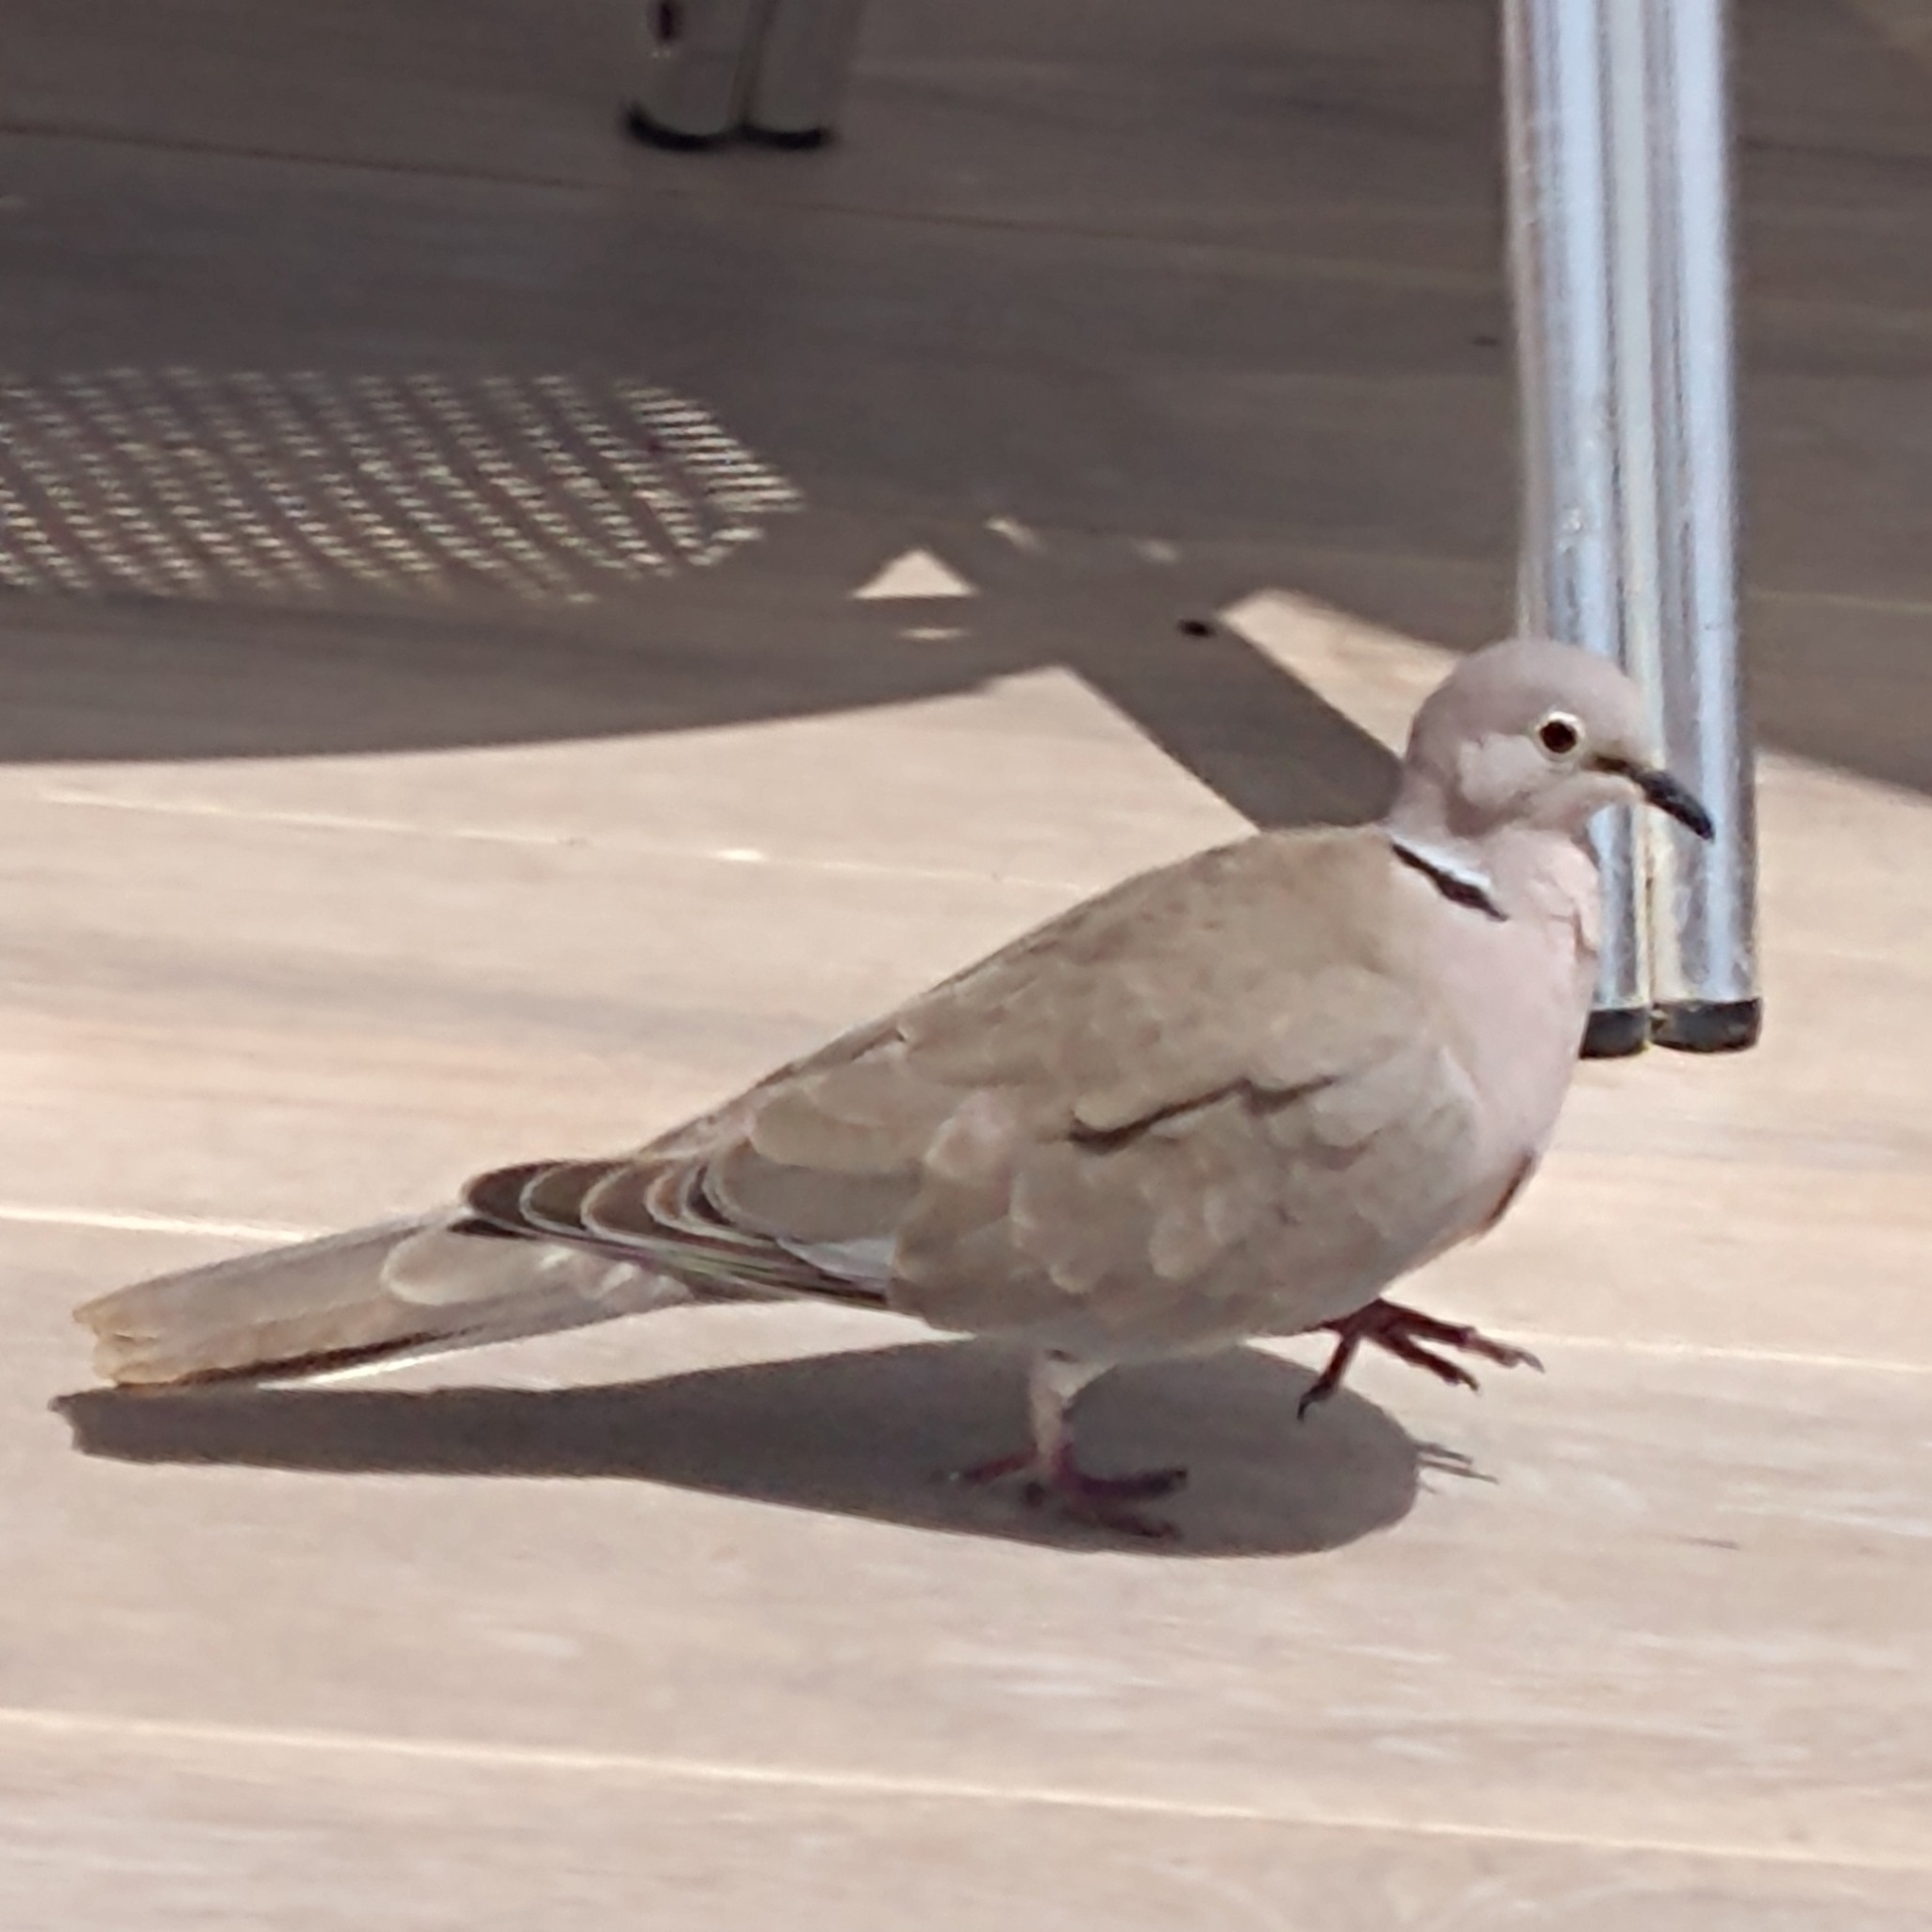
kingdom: Animalia
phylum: Chordata
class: Aves
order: Columbiformes
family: Columbidae
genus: Streptopelia
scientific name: Streptopelia decaocto
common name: Eurasian collared dove
